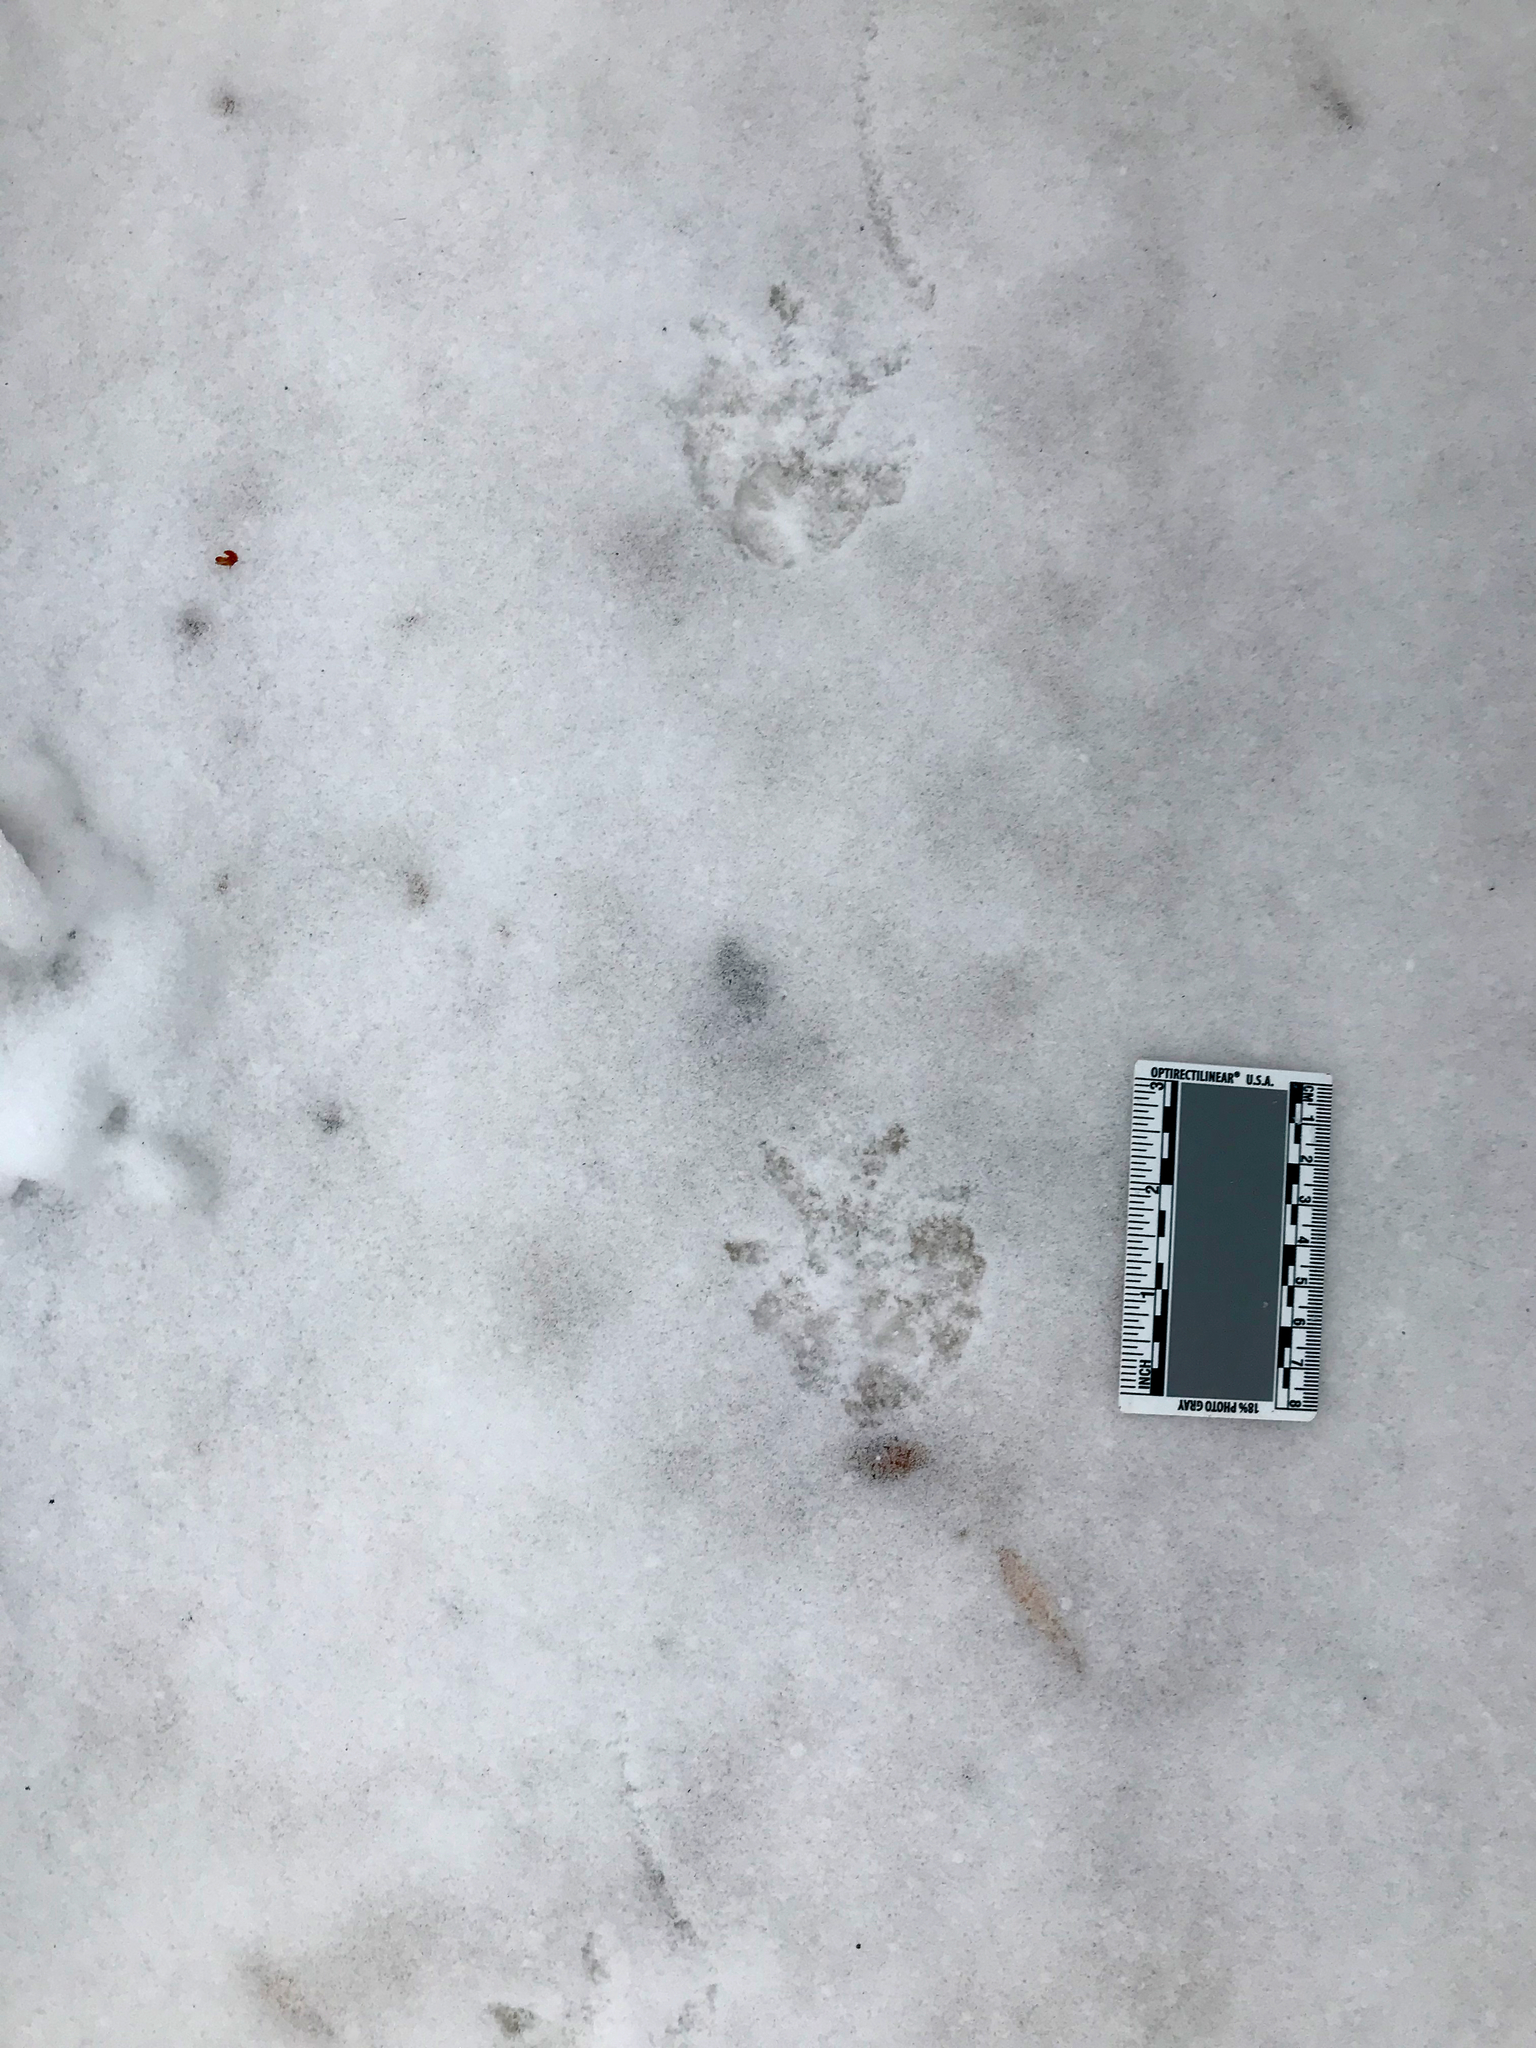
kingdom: Animalia
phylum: Chordata
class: Mammalia
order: Didelphimorphia
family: Didelphidae
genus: Didelphis
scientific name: Didelphis virginiana
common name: Virginia opossum
